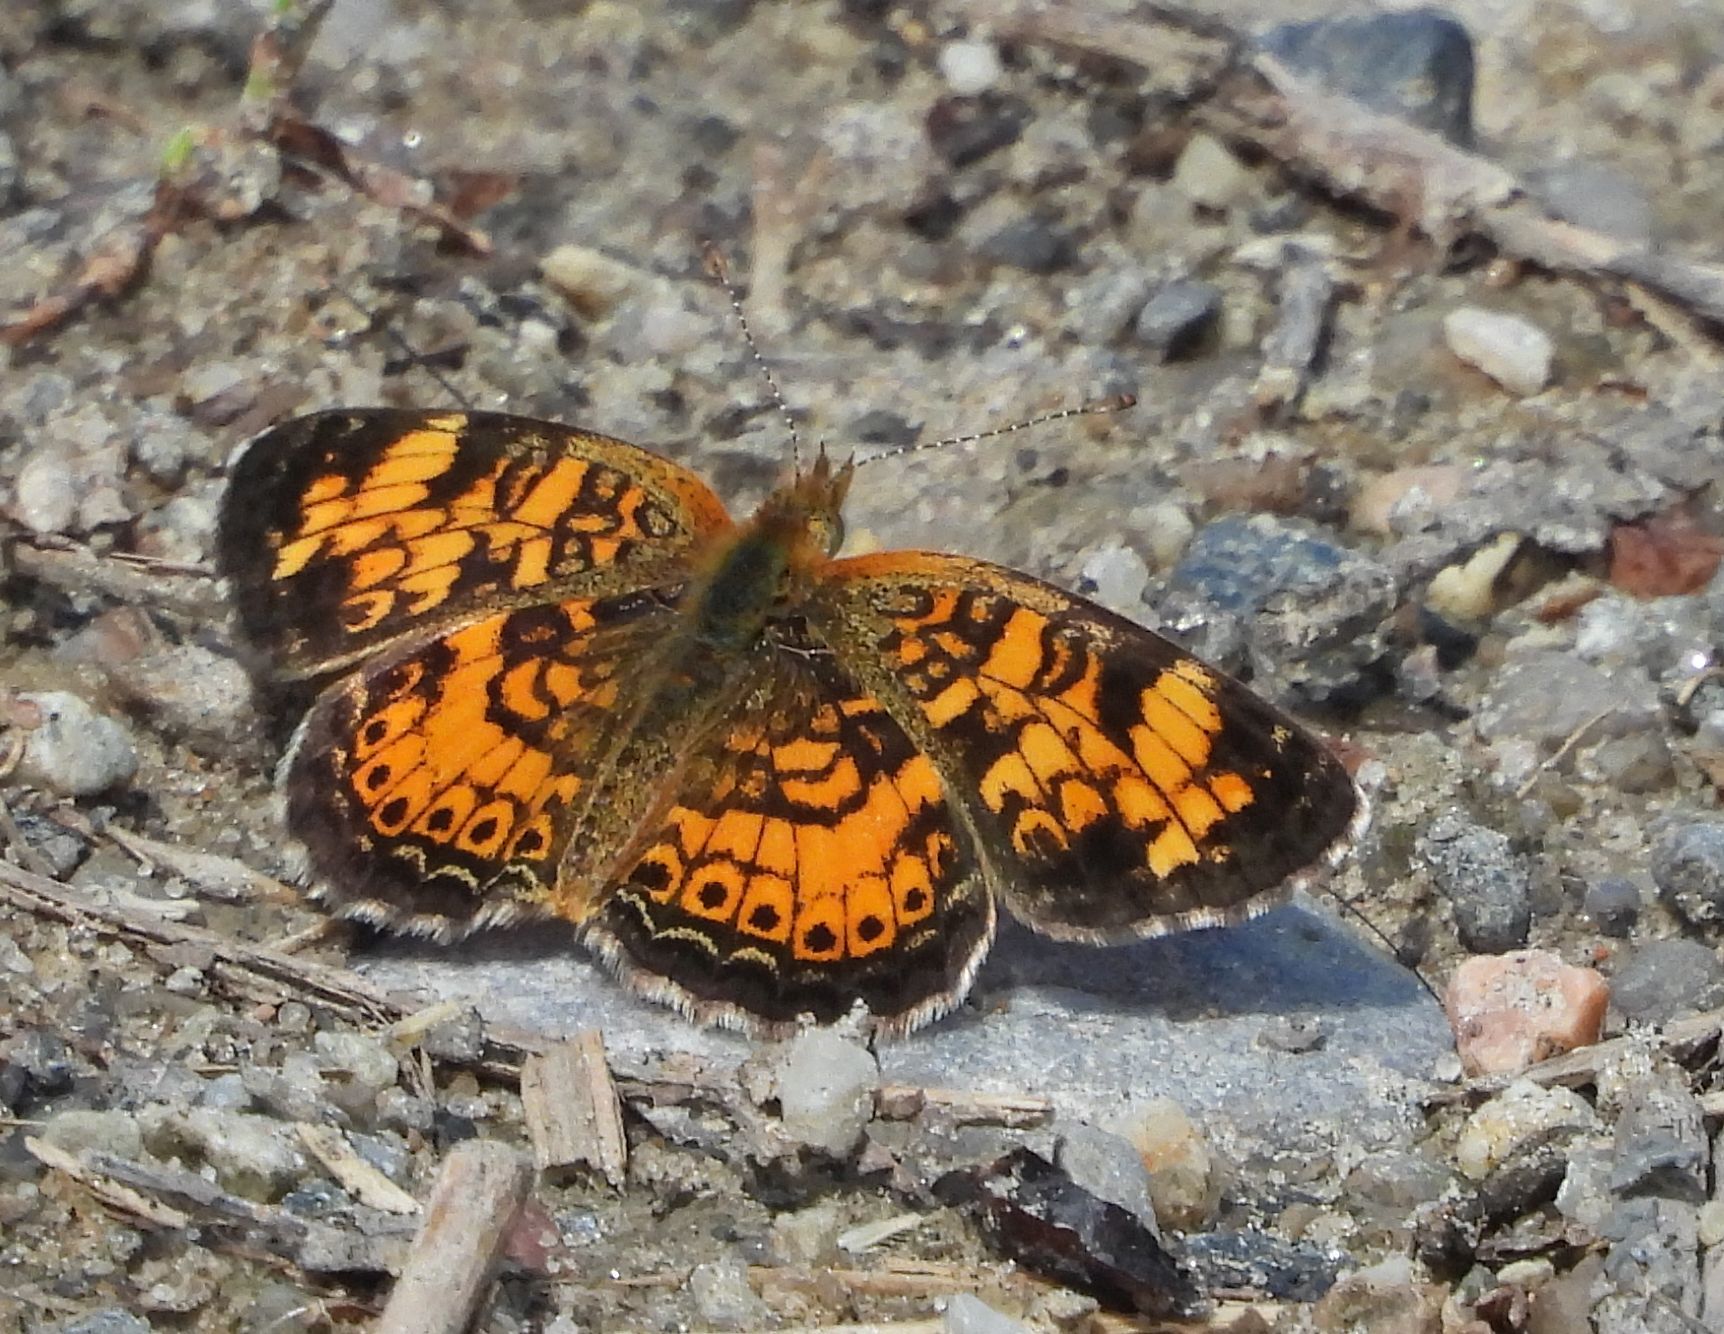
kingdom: Animalia
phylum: Arthropoda
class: Insecta
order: Lepidoptera
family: Nymphalidae
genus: Phyciodes
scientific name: Phyciodes tharos
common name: Pearl crescent
